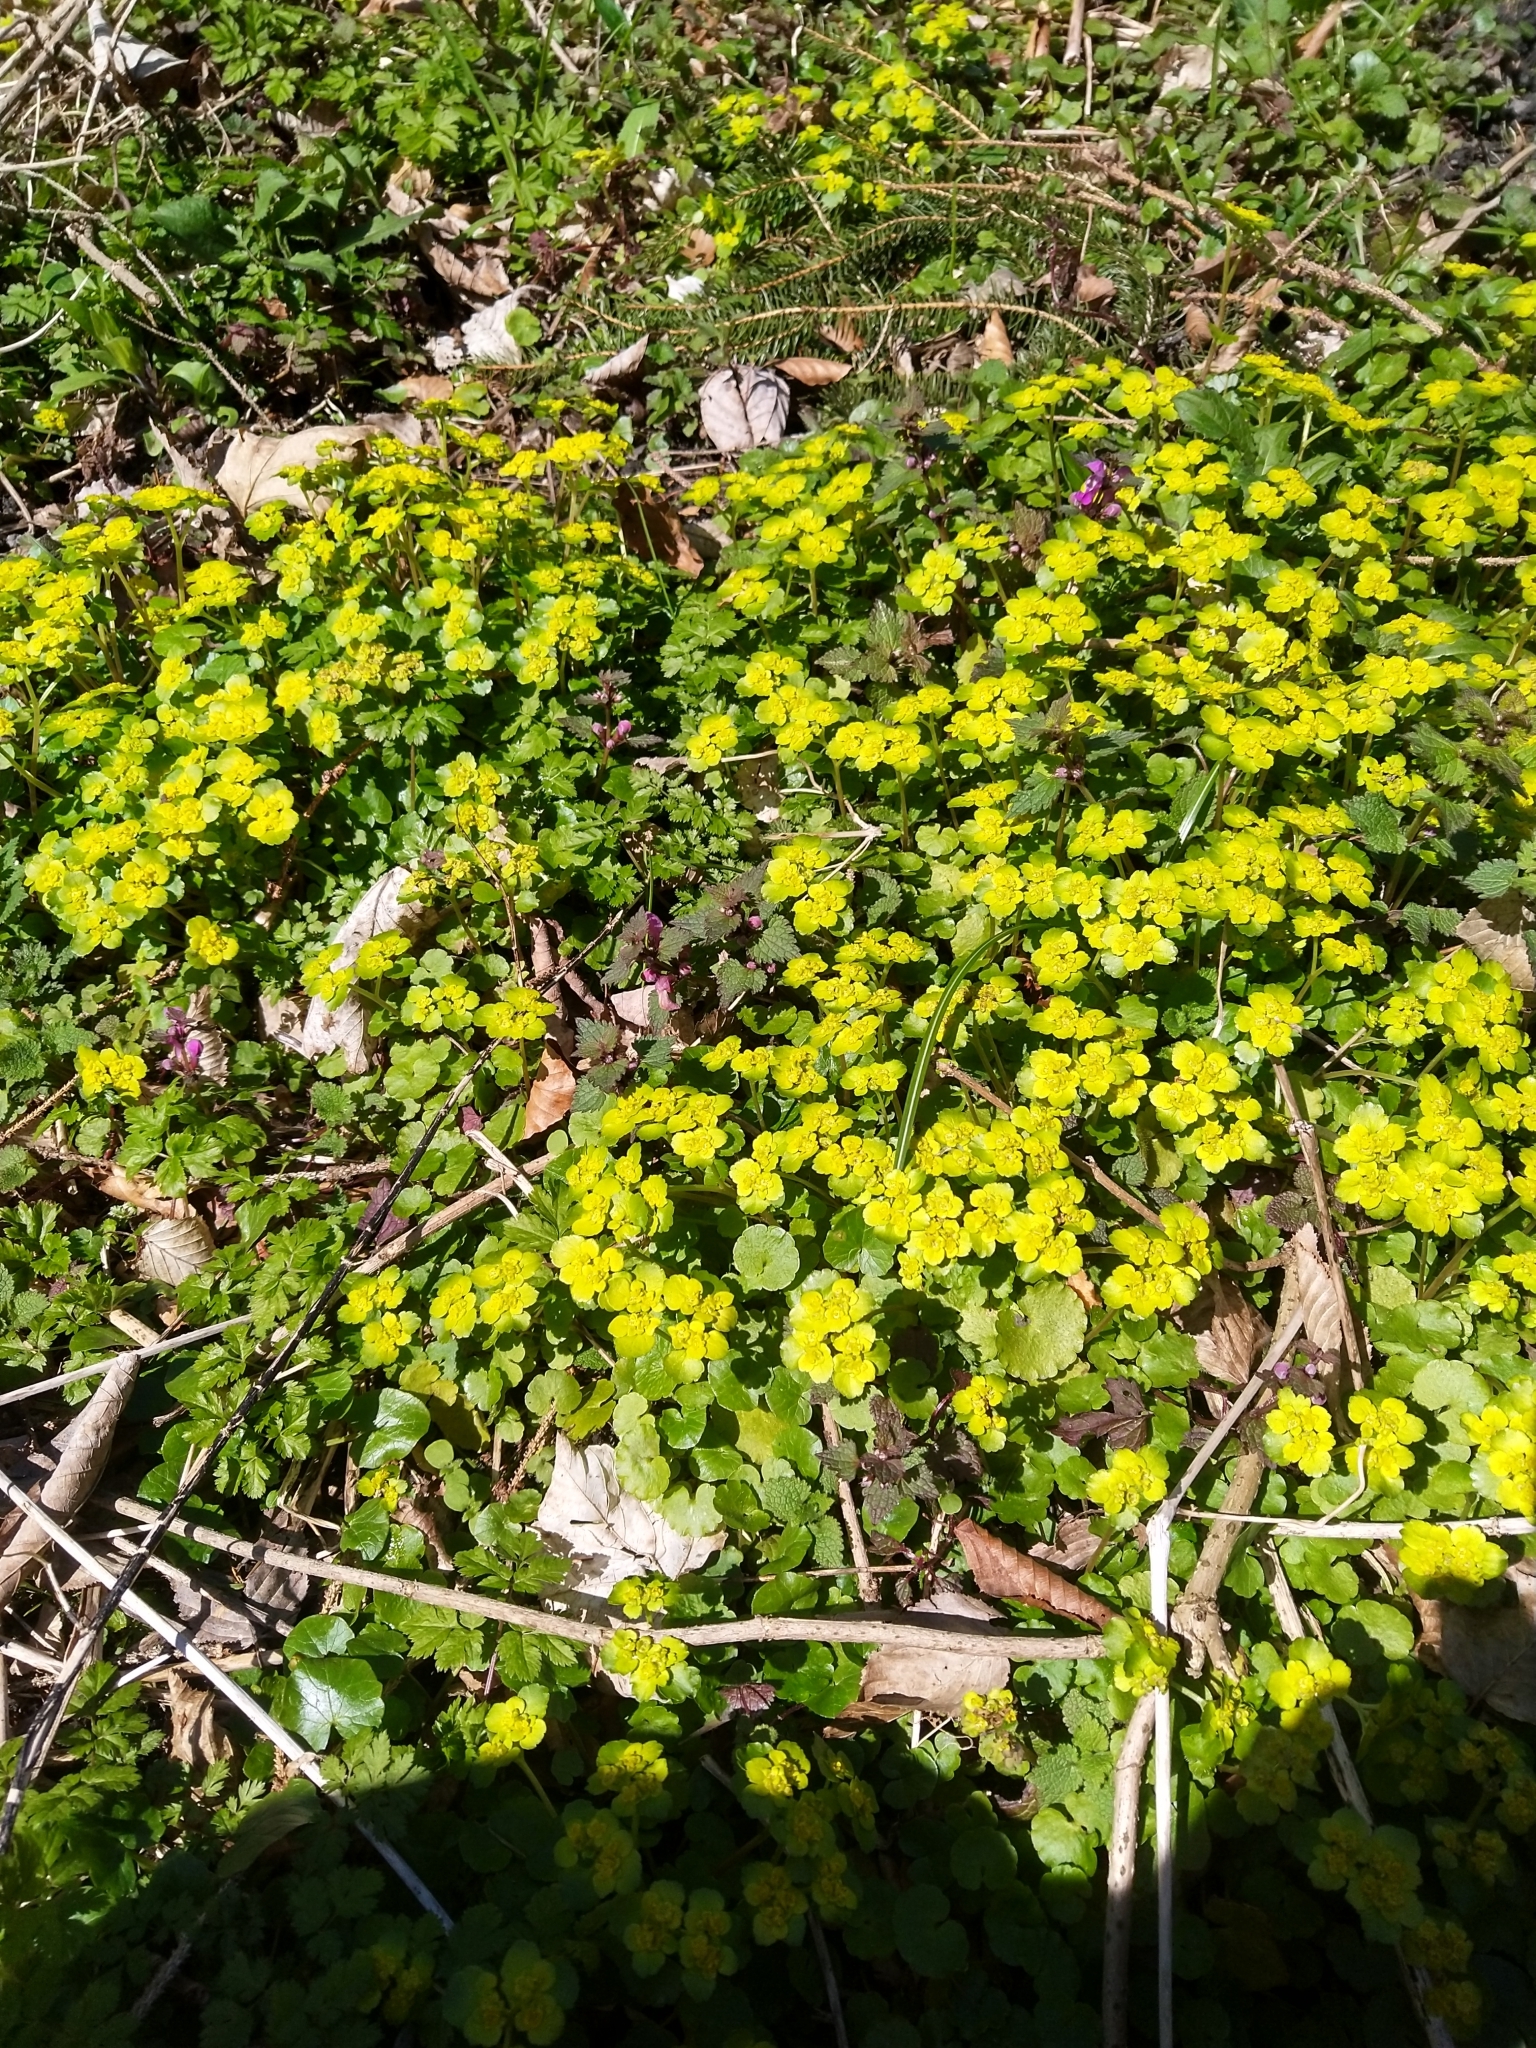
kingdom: Plantae
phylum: Tracheophyta
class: Magnoliopsida
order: Saxifragales
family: Saxifragaceae
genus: Chrysosplenium
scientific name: Chrysosplenium alternifolium
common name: Alternate-leaved golden-saxifrage
